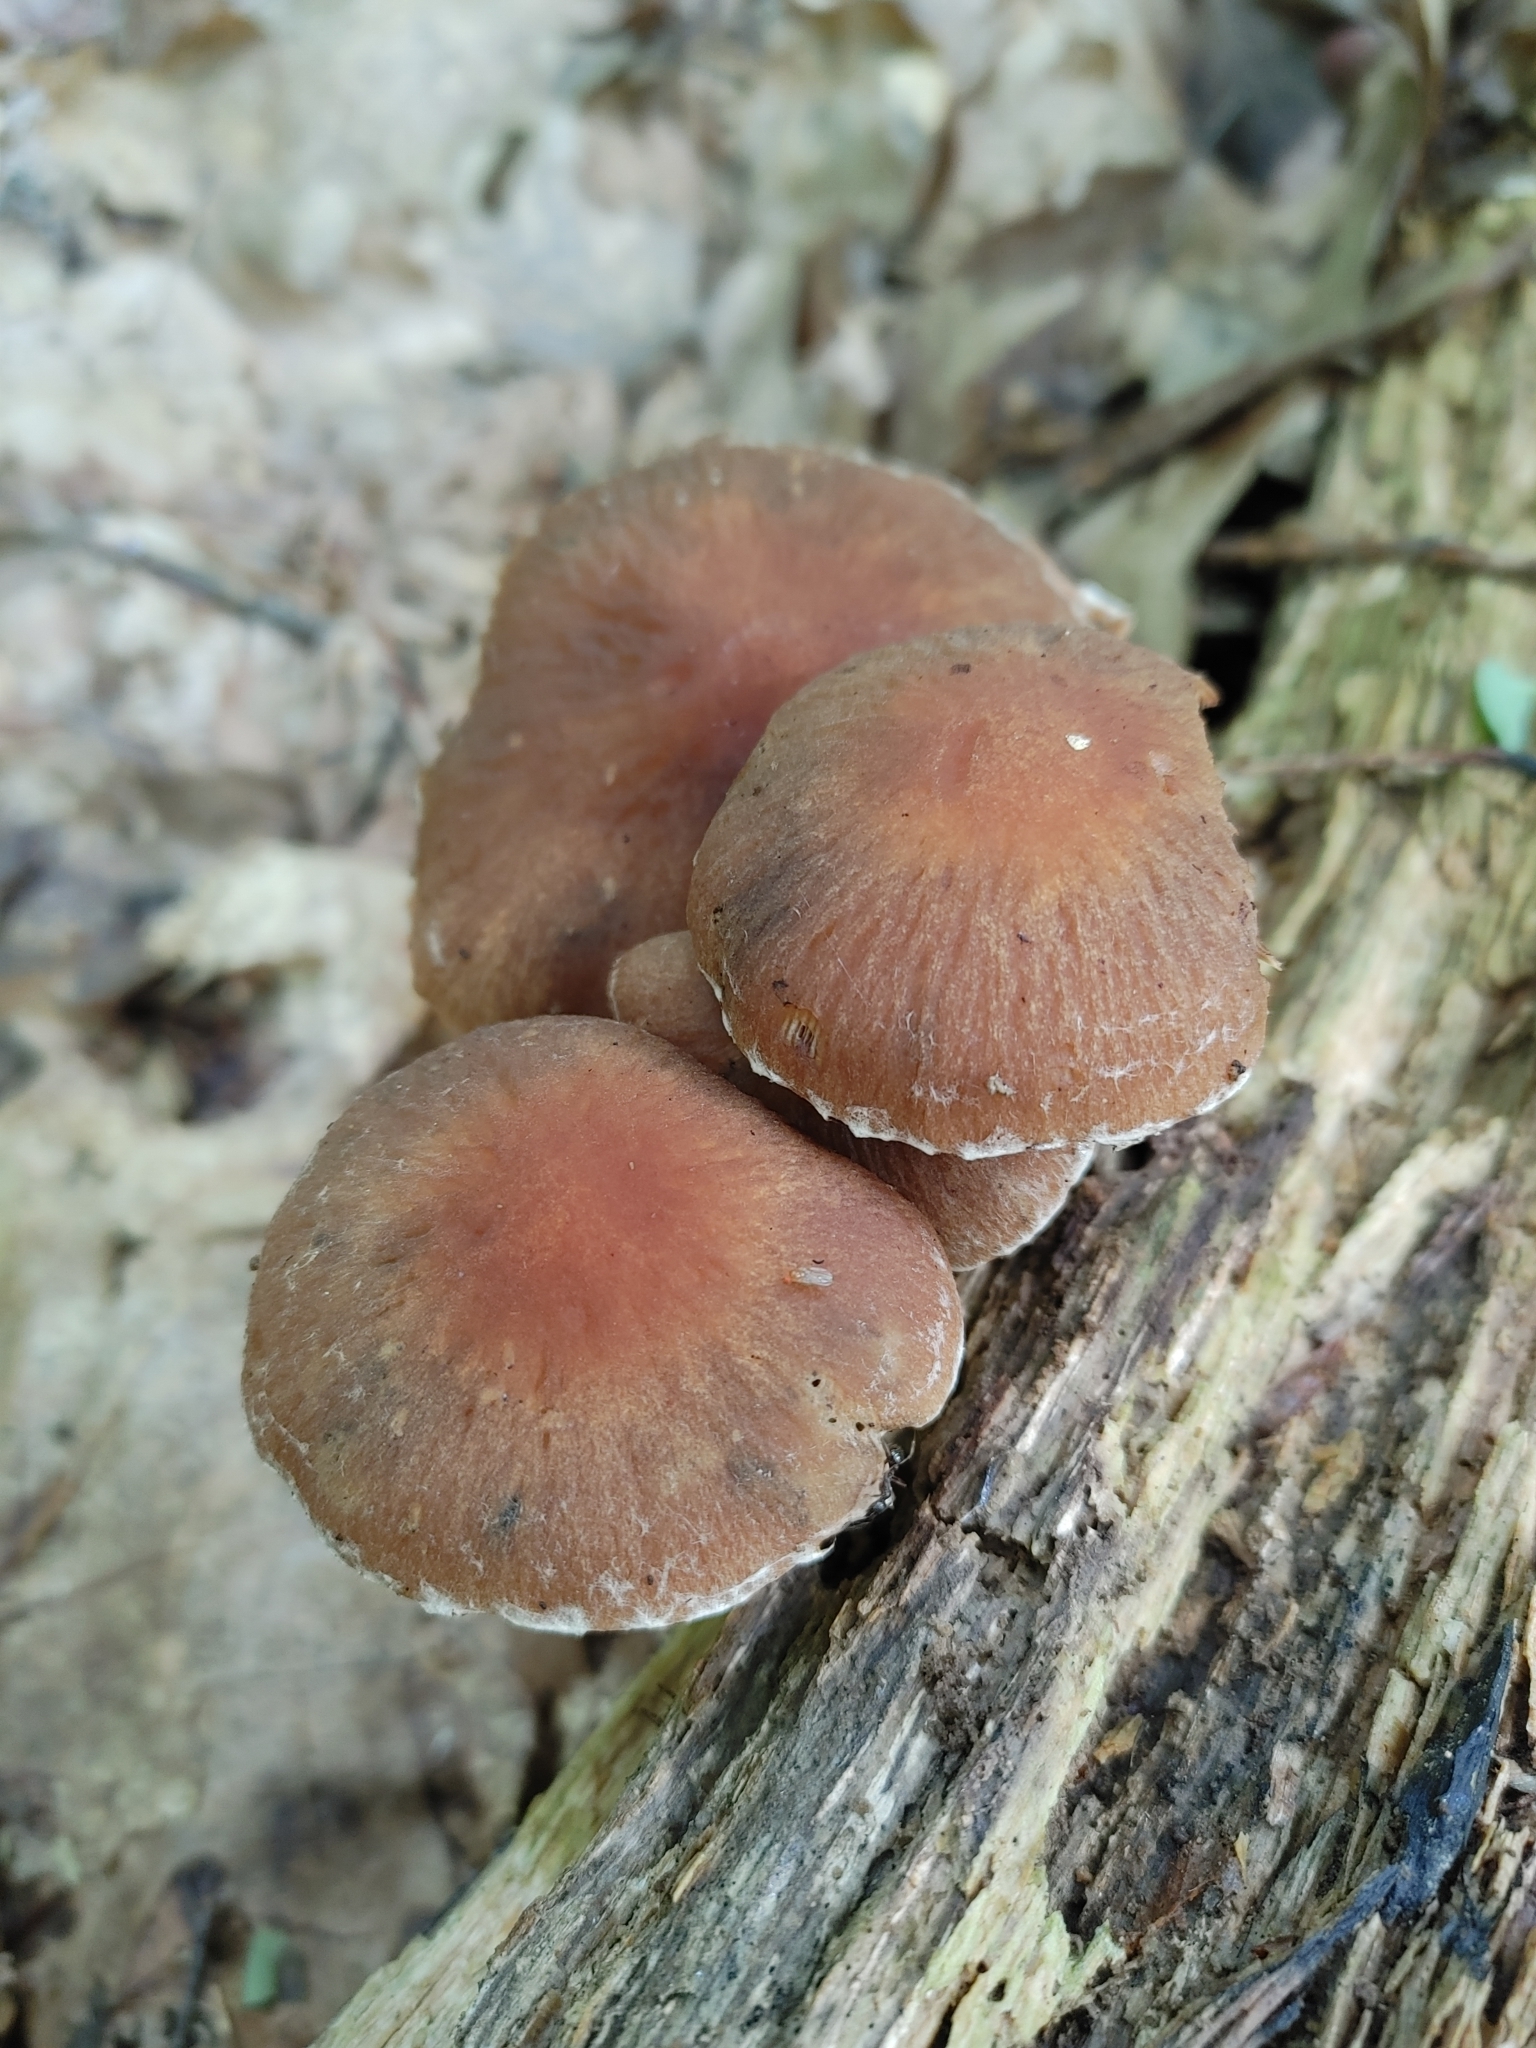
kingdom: Fungi
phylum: Basidiomycota
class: Agaricomycetes
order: Agaricales
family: Psathyrellaceae
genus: Typhrasa
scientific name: Typhrasa gossypina
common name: Wrinkled psathyrella
